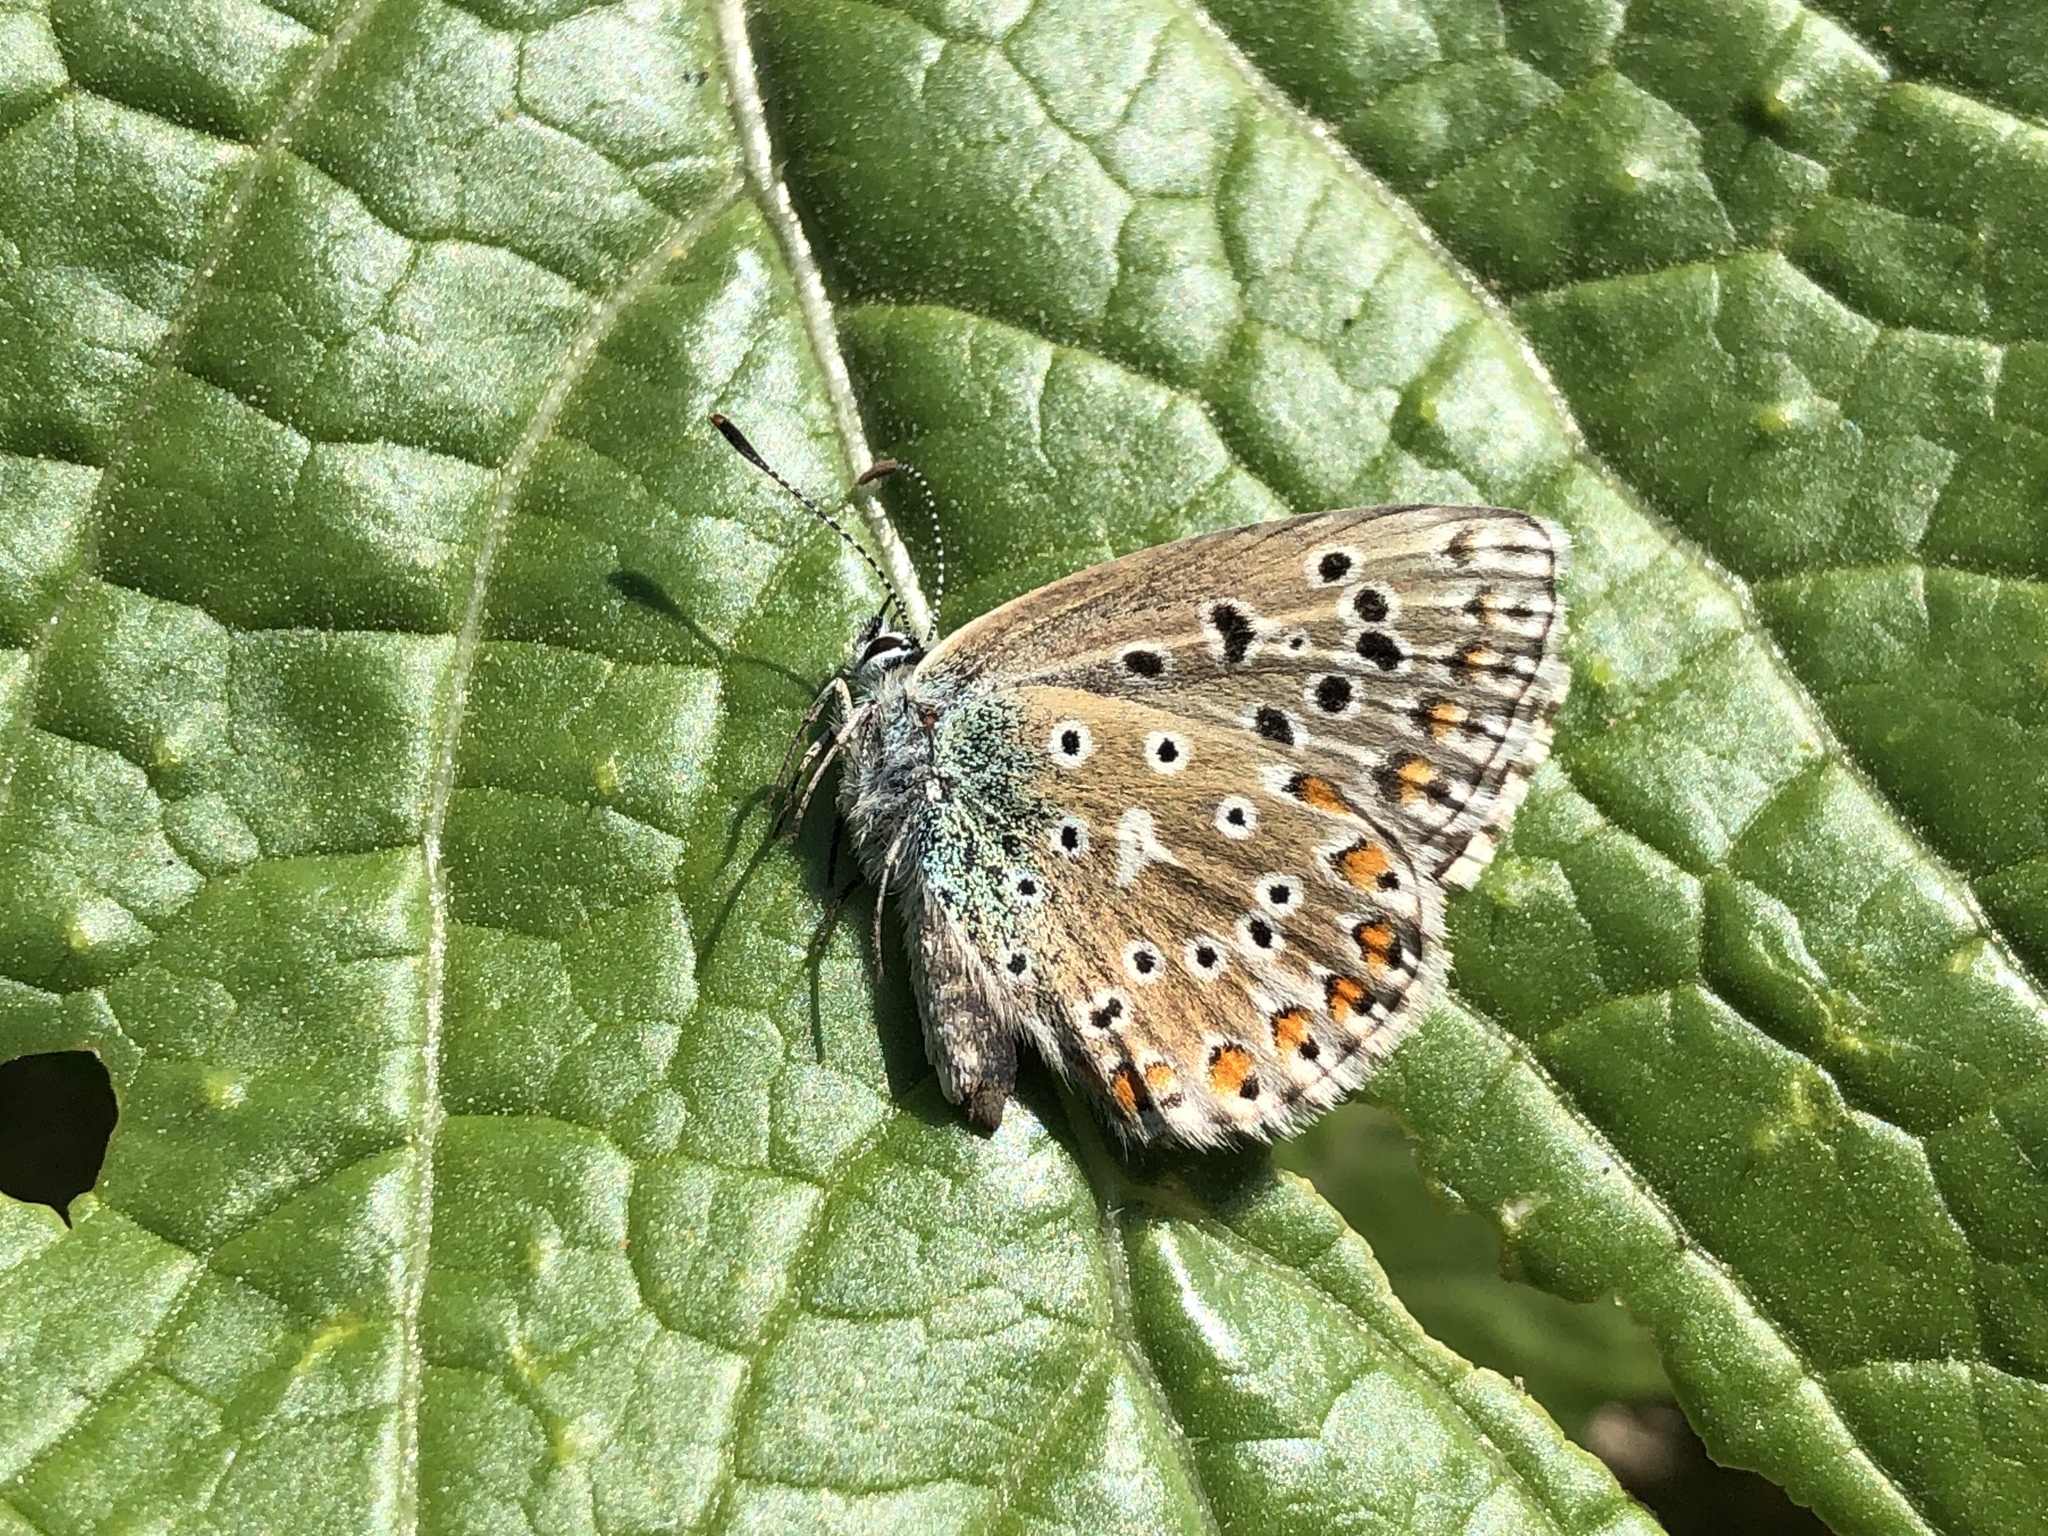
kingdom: Animalia
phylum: Arthropoda
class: Insecta
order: Lepidoptera
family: Lycaenidae
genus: Lysandra
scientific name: Lysandra bellargus
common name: Adonis blue
